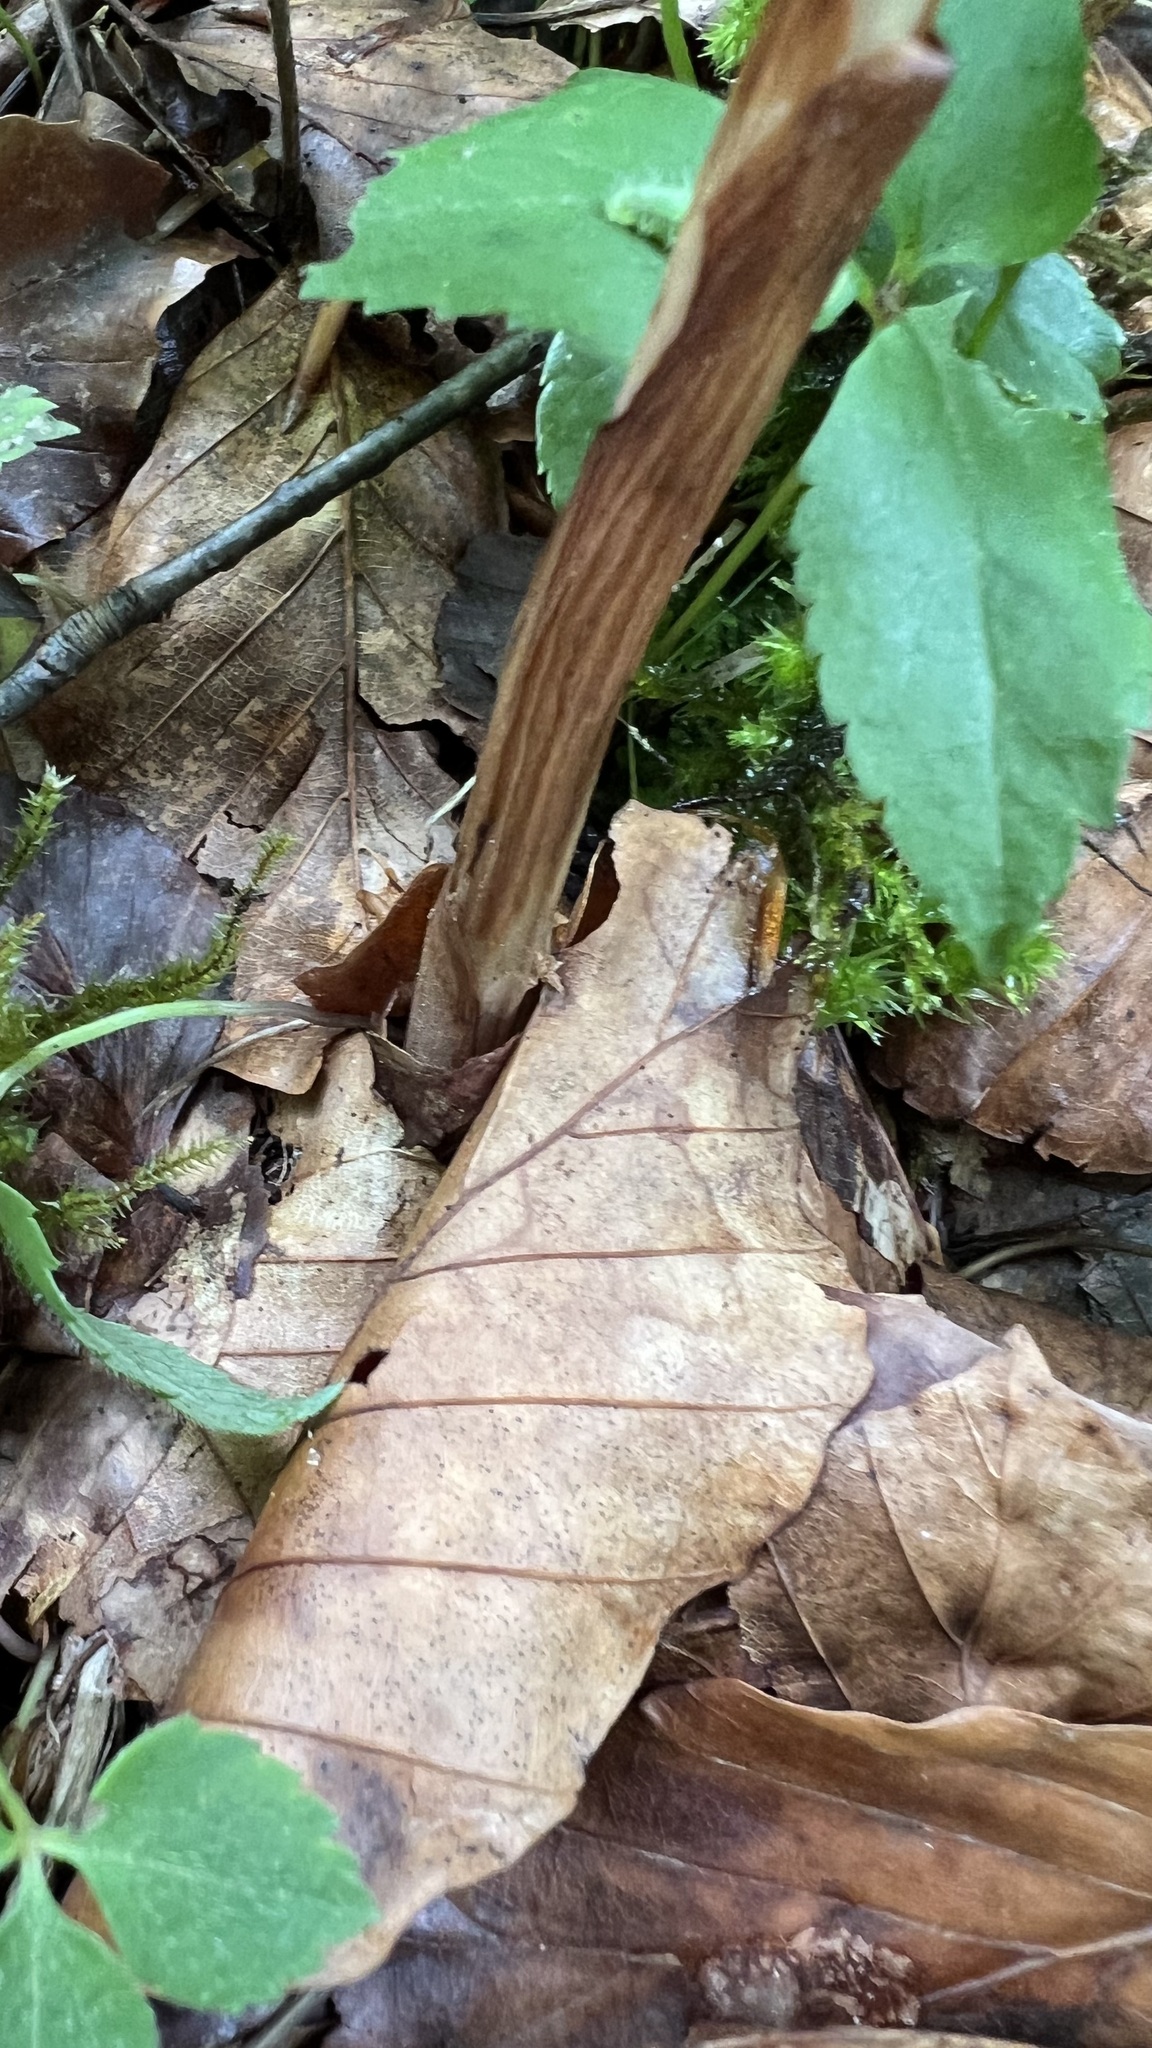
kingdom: Plantae
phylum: Tracheophyta
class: Liliopsida
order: Asparagales
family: Orchidaceae
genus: Neottia
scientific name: Neottia nidus-avis
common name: Bird's-nest orchid
